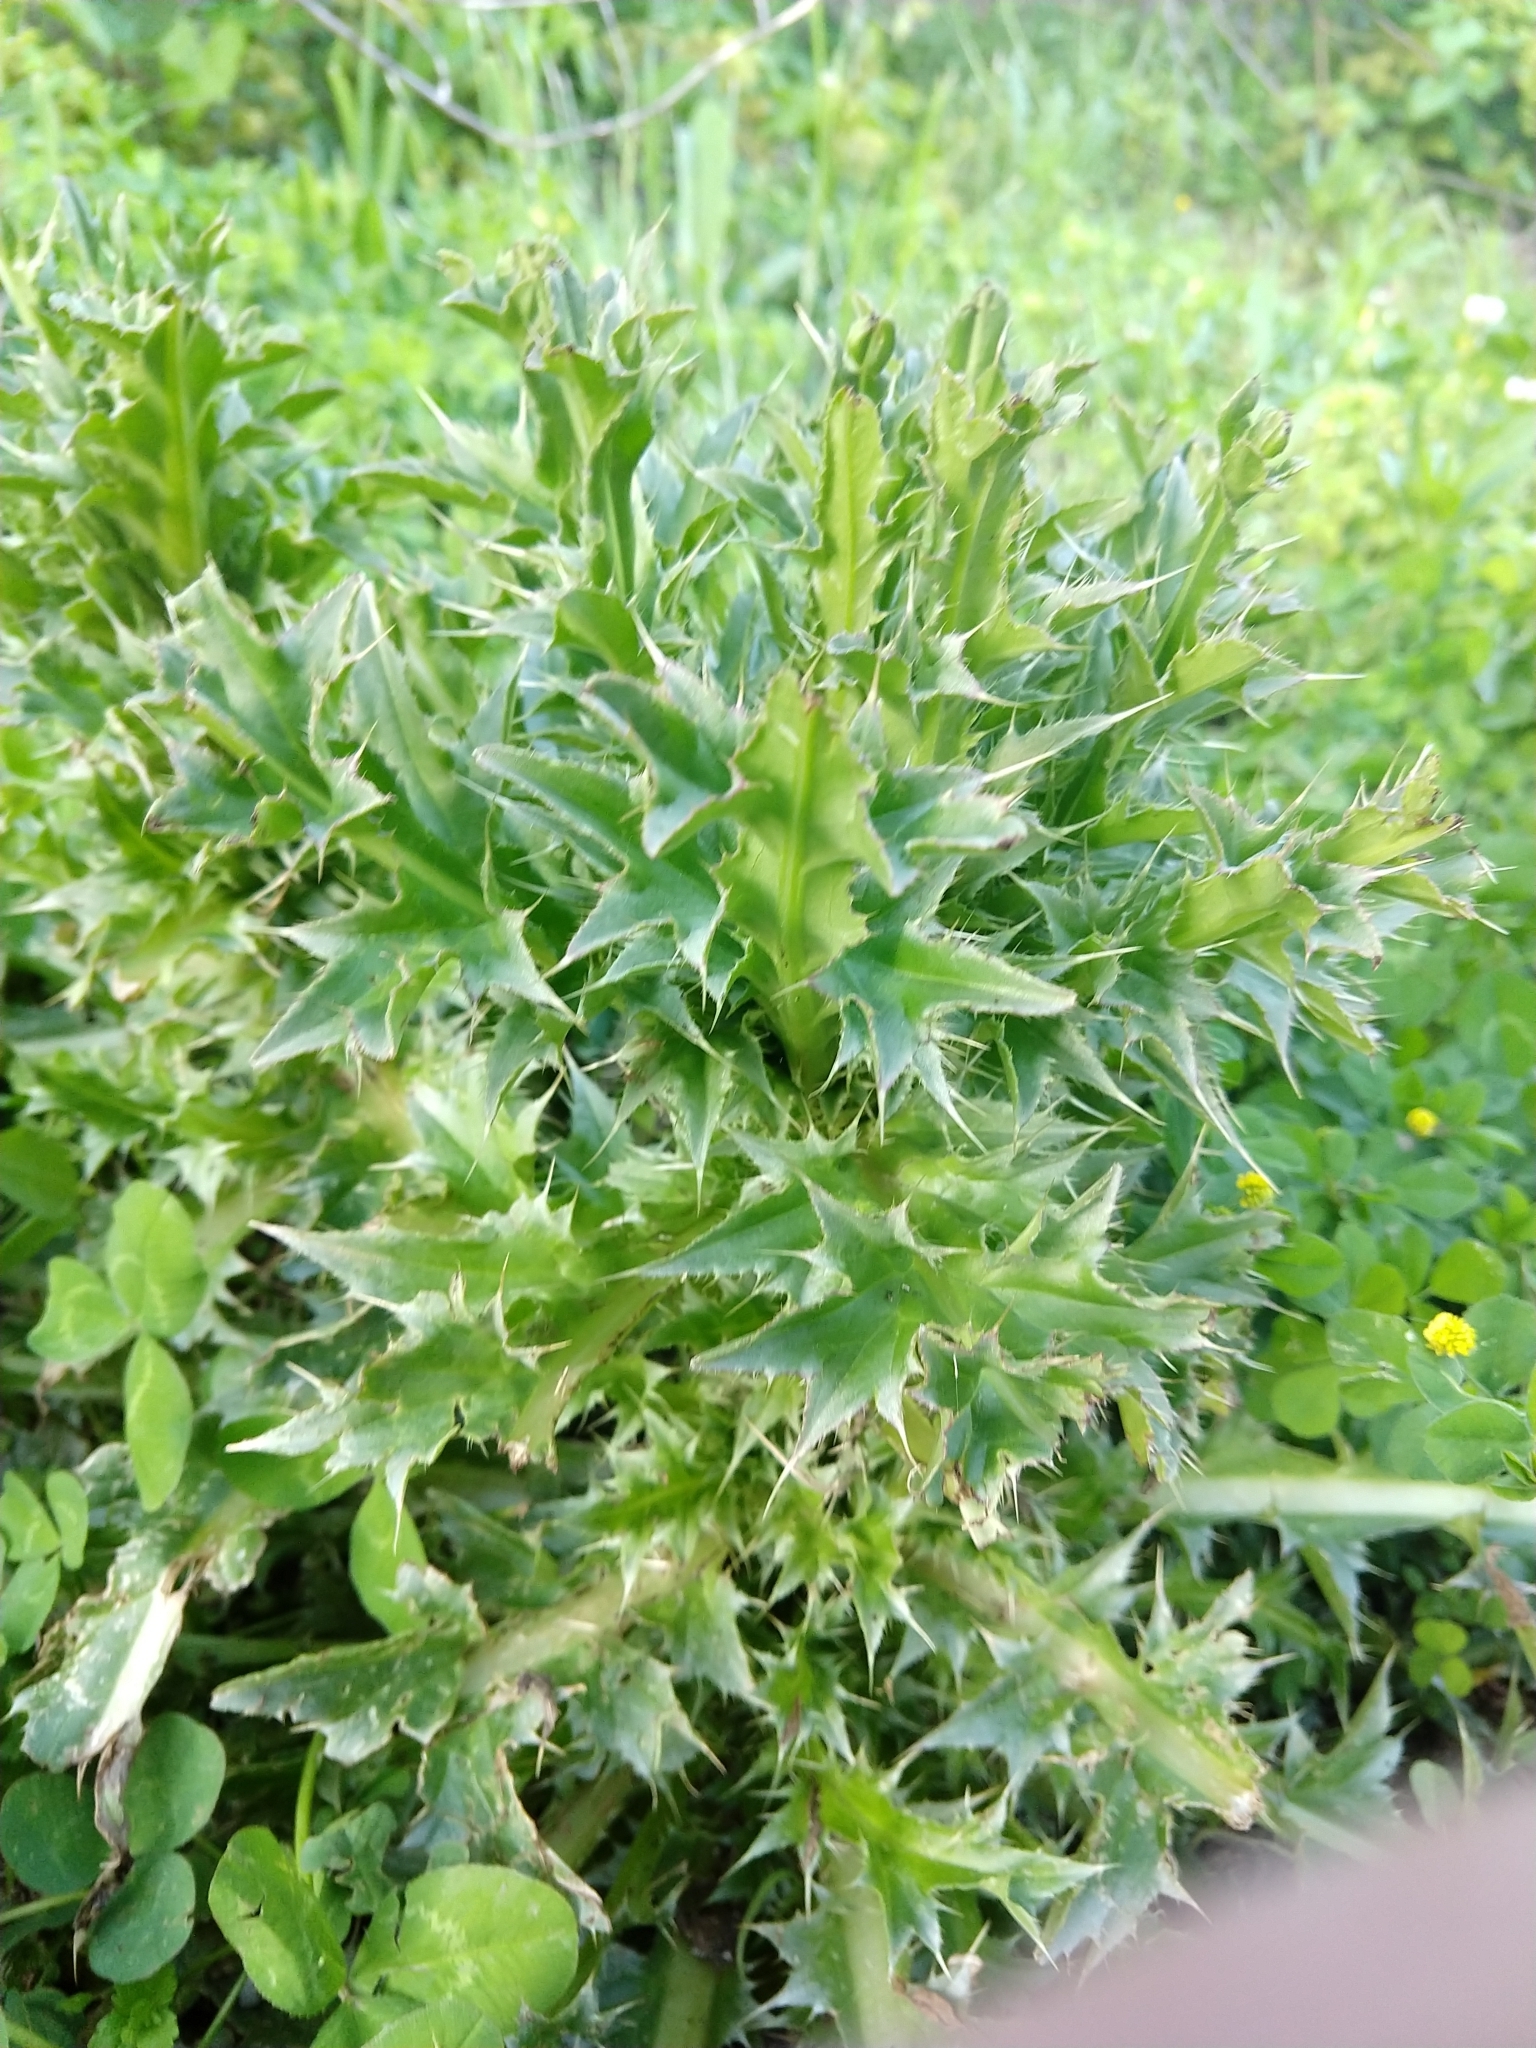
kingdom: Plantae
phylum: Tracheophyta
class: Magnoliopsida
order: Asterales
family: Asteraceae
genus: Carduus
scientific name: Carduus nutans
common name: Musk thistle
